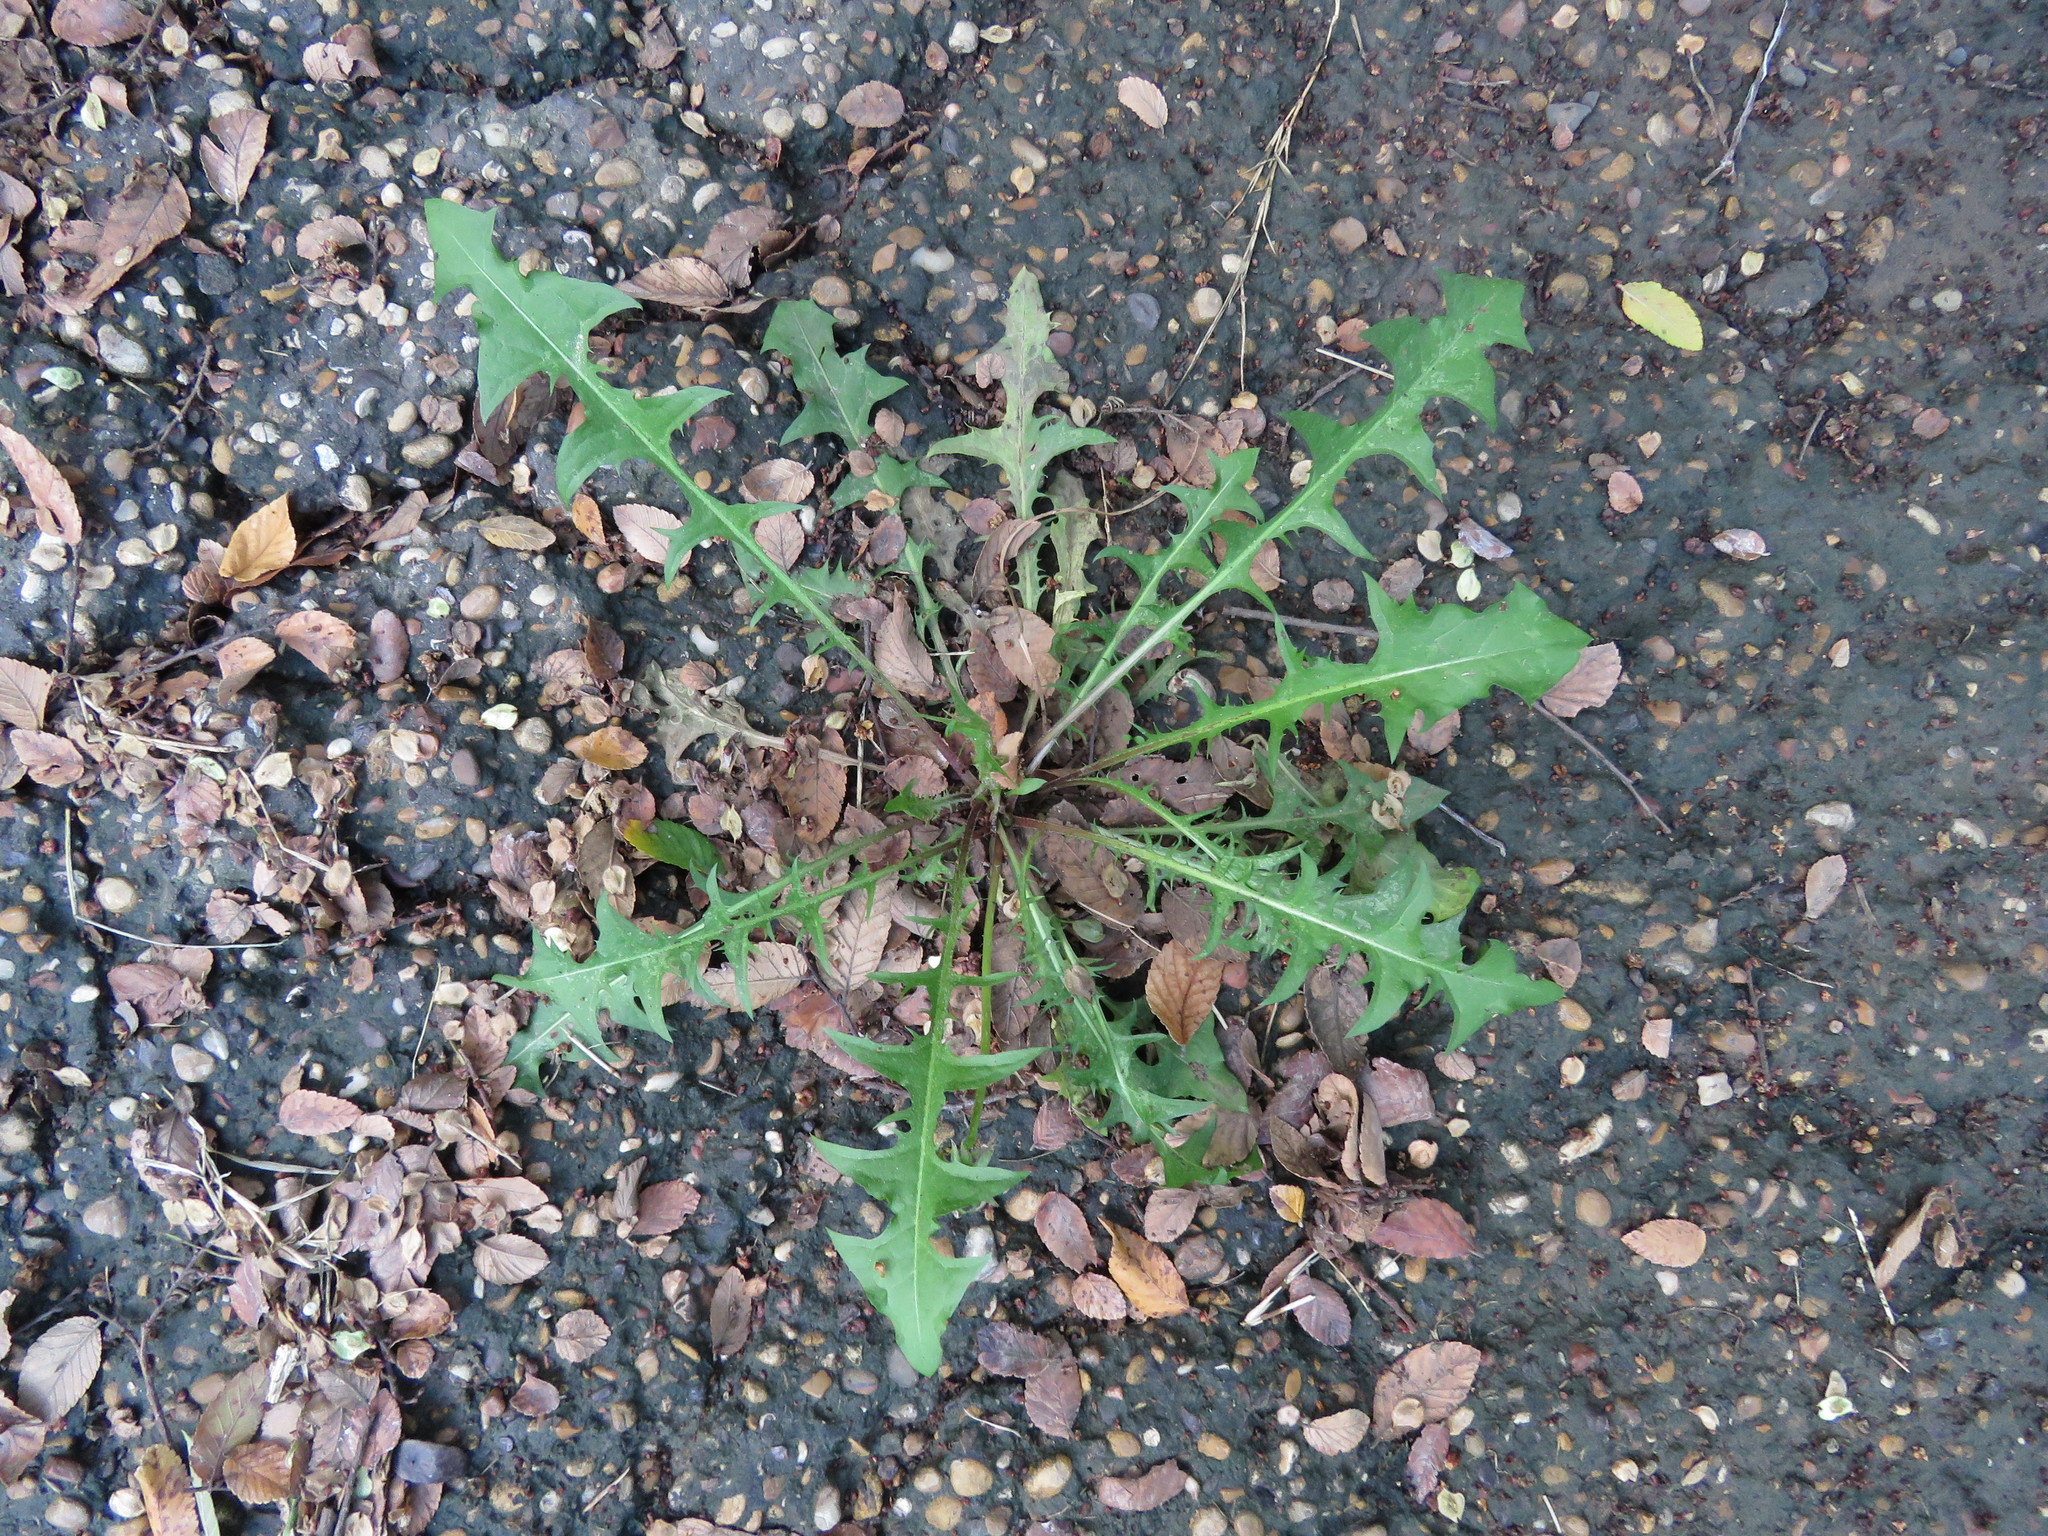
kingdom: Plantae
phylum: Tracheophyta
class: Magnoliopsida
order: Asterales
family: Asteraceae
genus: Taraxacum
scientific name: Taraxacum officinale
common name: Common dandelion
